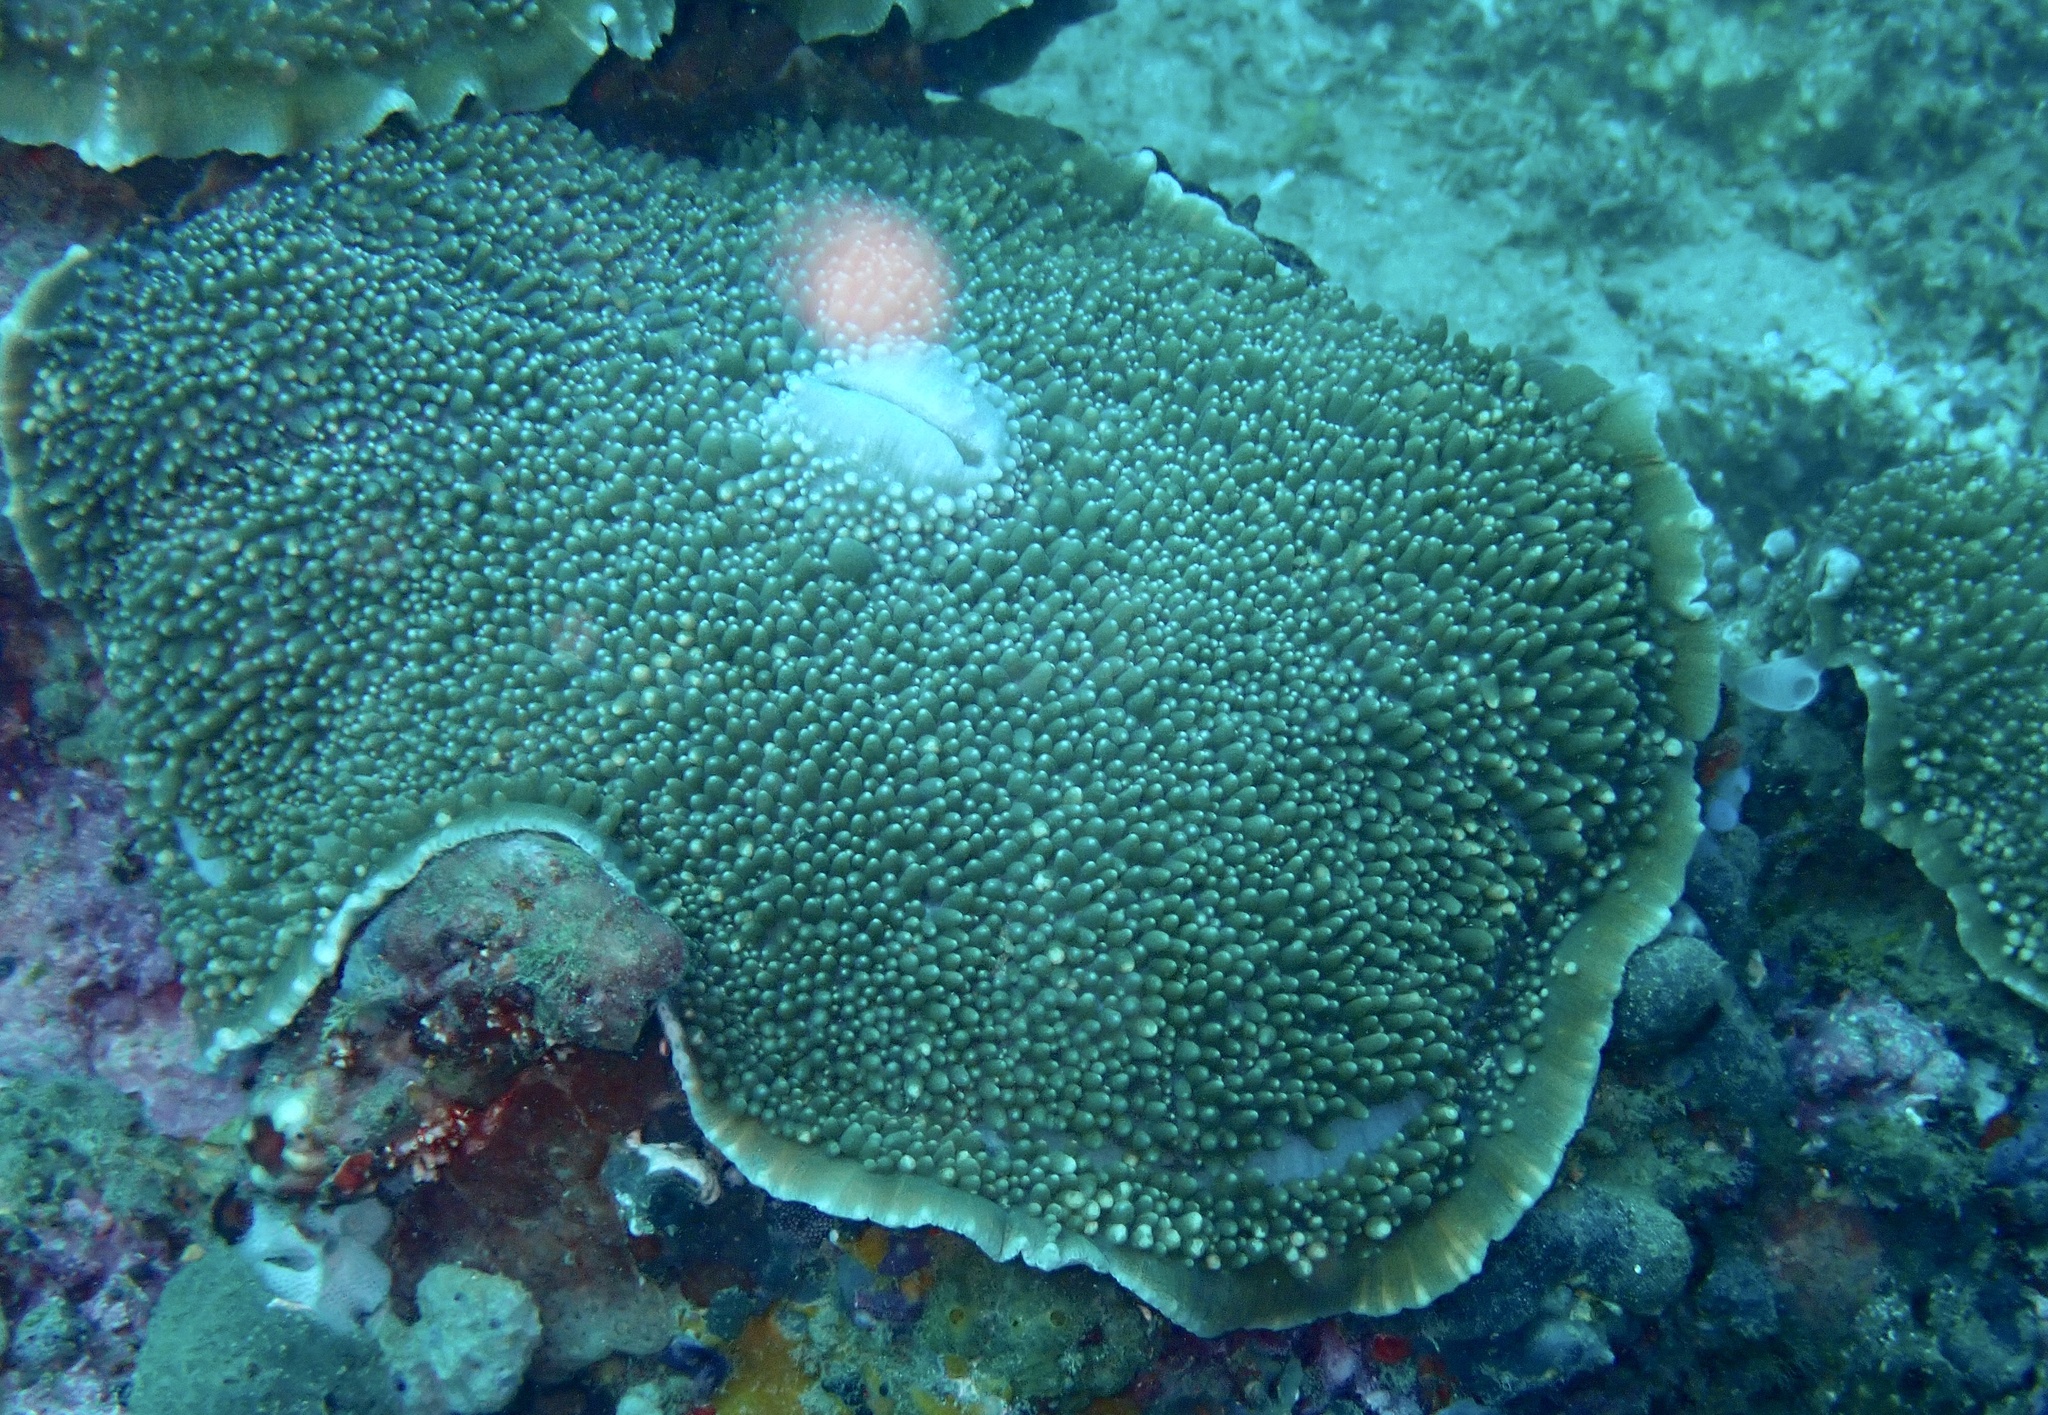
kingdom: Animalia
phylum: Cnidaria
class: Anthozoa
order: Corallimorpharia
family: Discosomidae
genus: Amplexidiscus
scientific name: Amplexidiscus fenestrafer
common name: Elephant ear anemone
